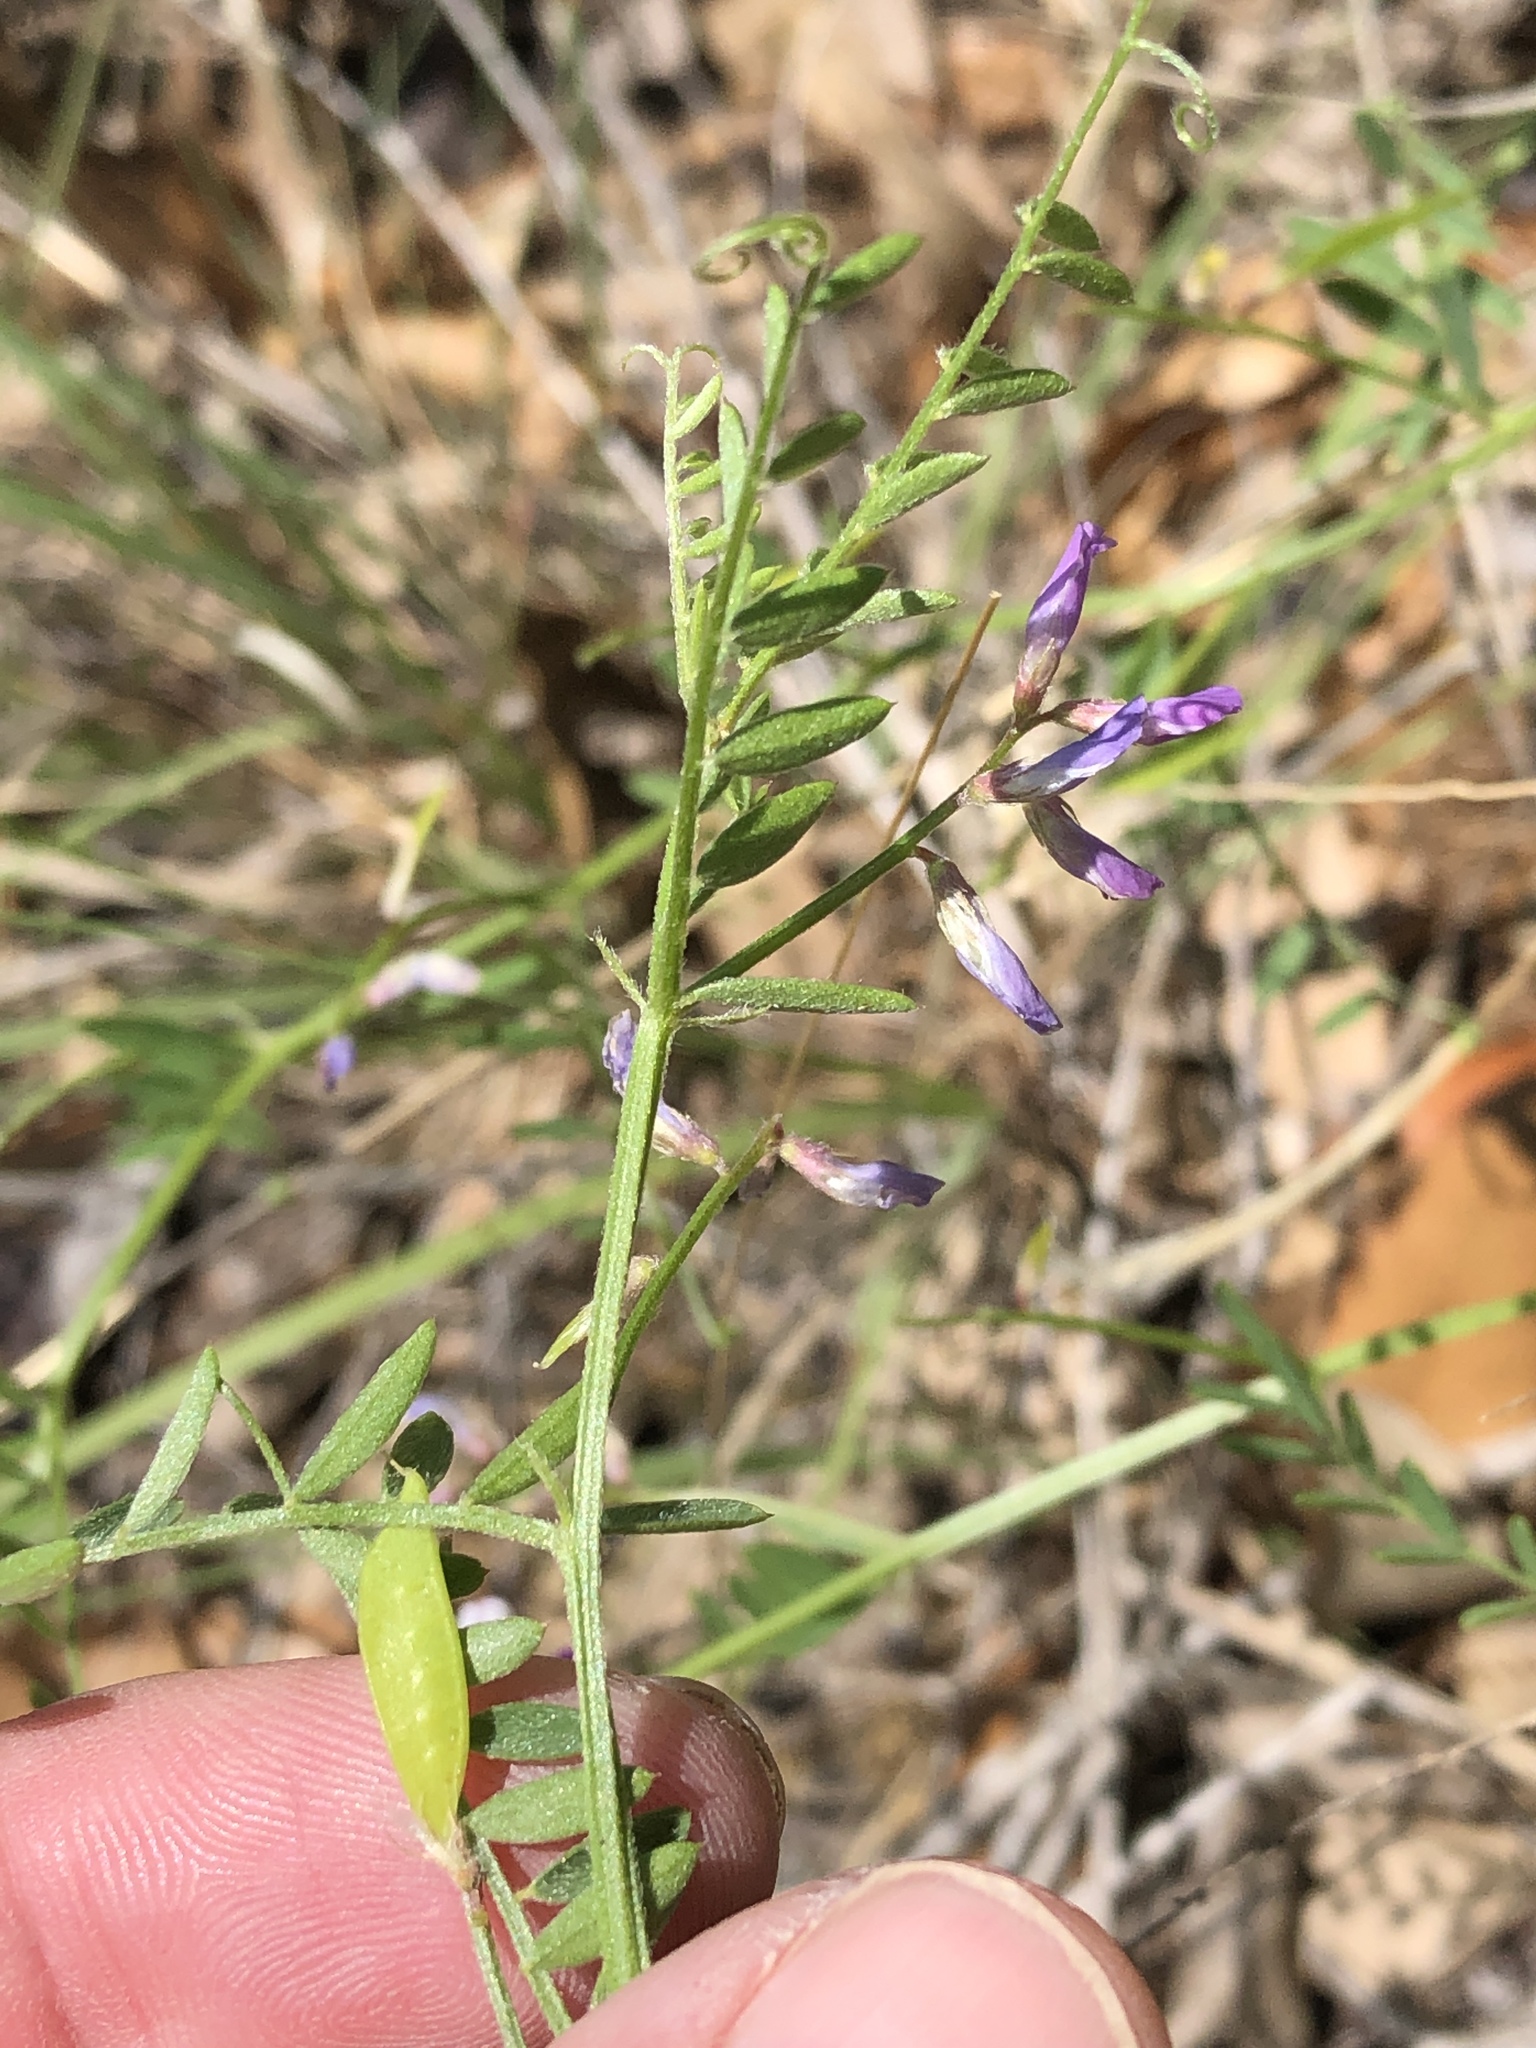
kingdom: Plantae
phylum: Tracheophyta
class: Magnoliopsida
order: Fabales
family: Fabaceae
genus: Vicia
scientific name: Vicia ludoviciana
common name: Louisiana vetch
